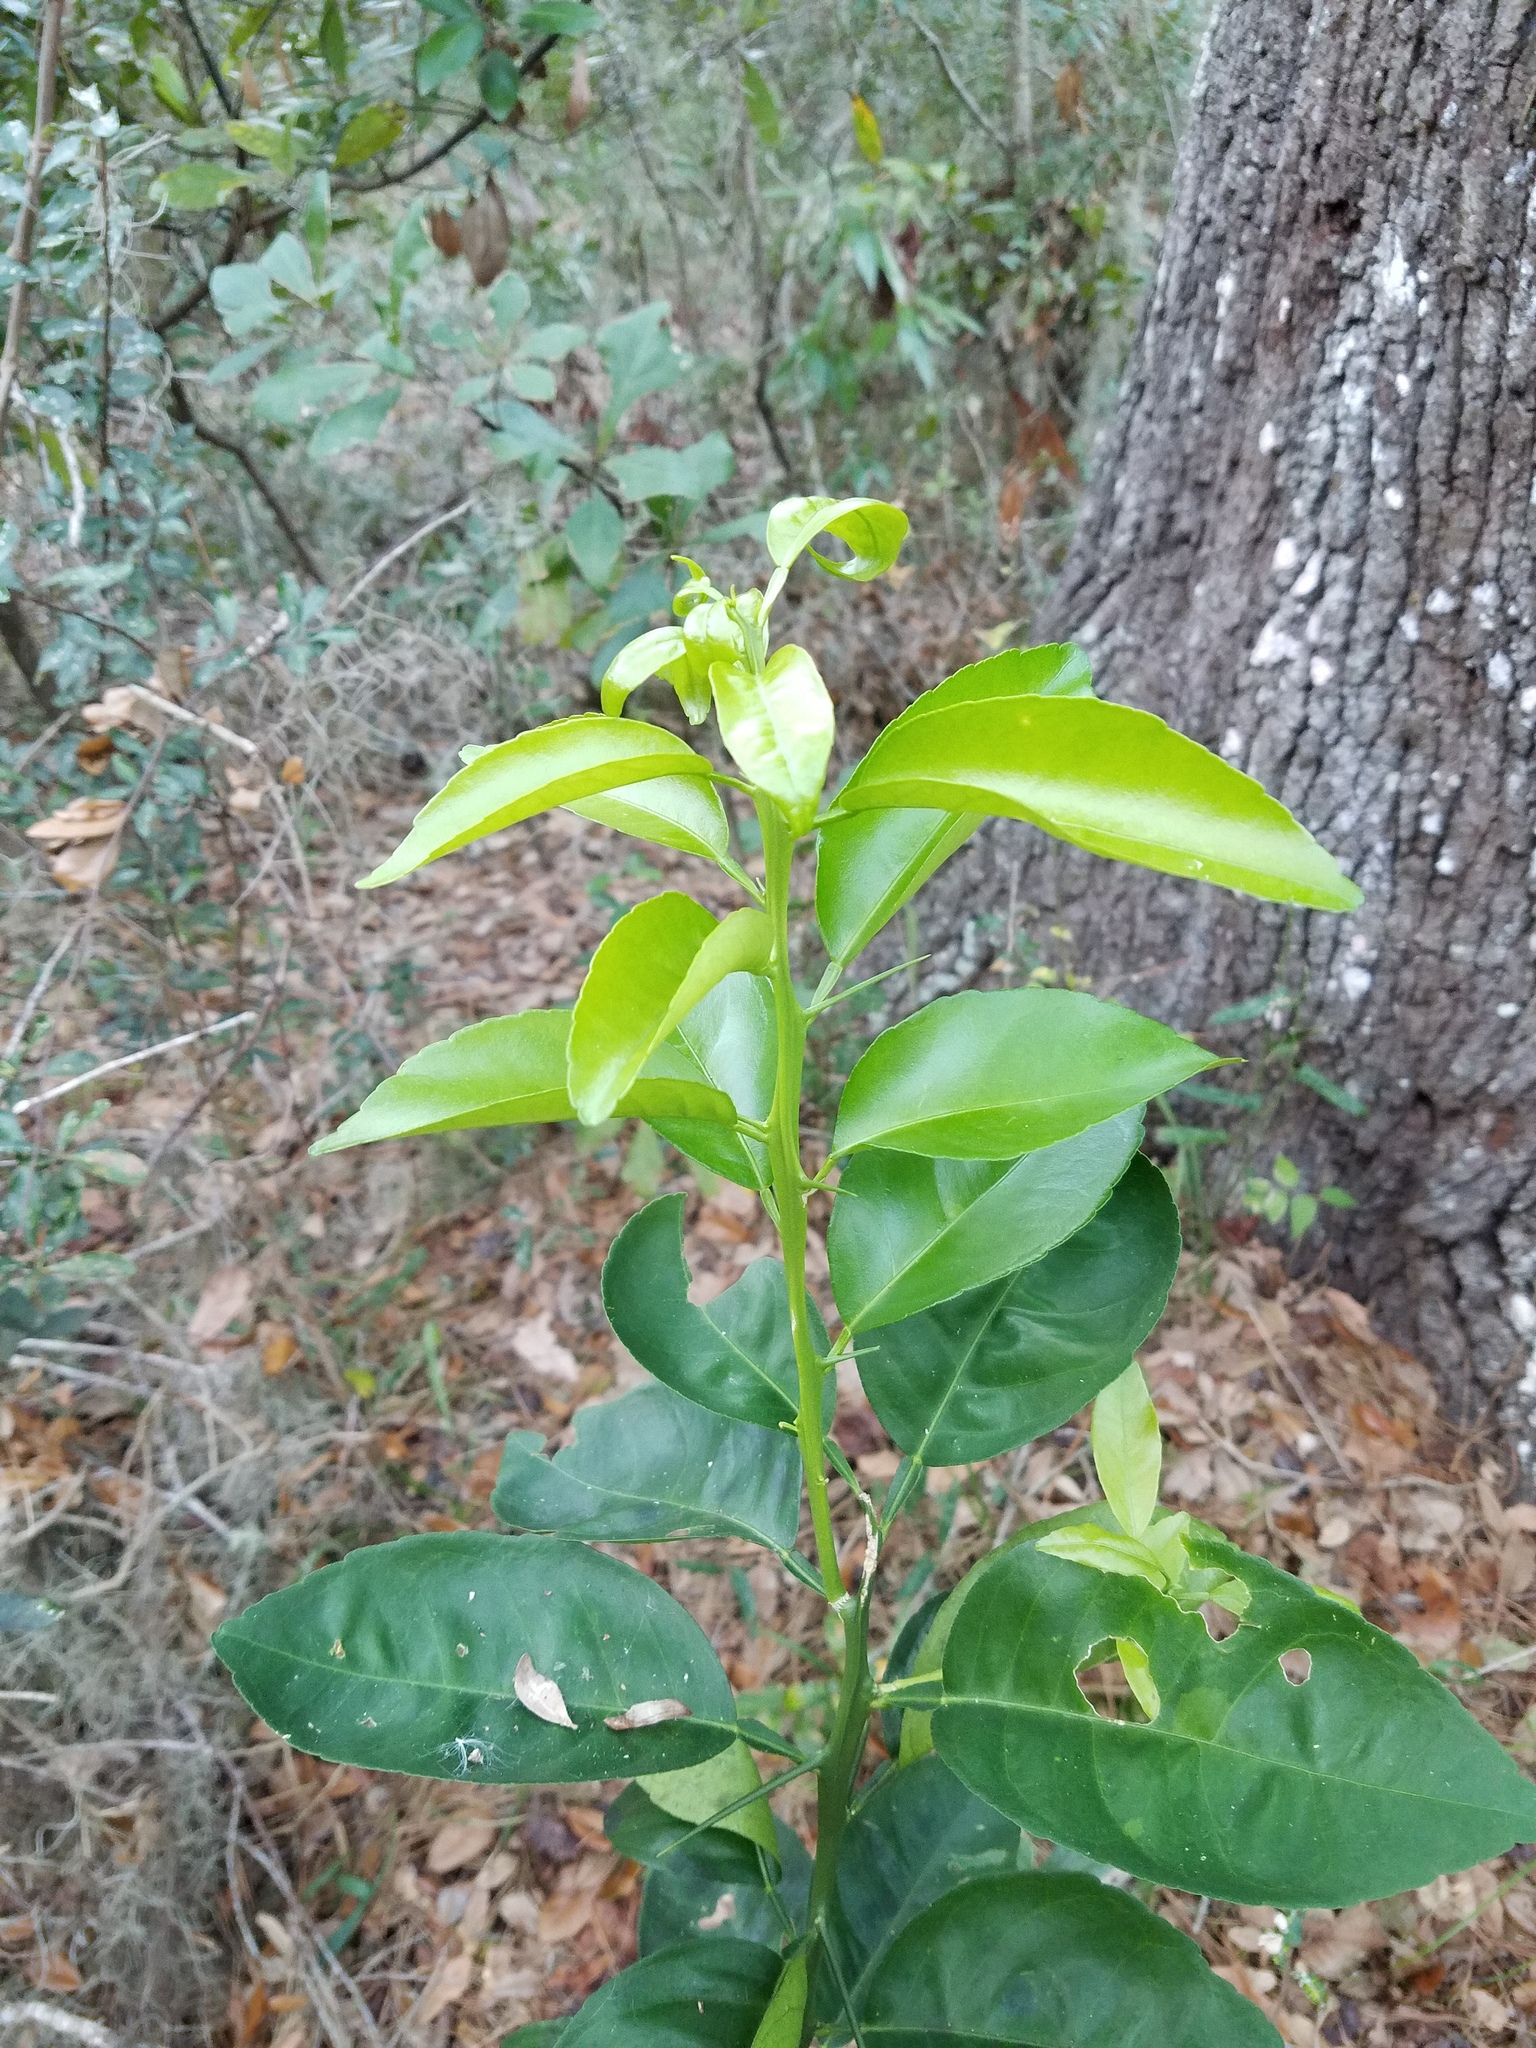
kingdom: Plantae
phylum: Tracheophyta
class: Magnoliopsida
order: Sapindales
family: Rutaceae
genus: Citrus
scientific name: Citrus aurantium
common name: Sour orange
